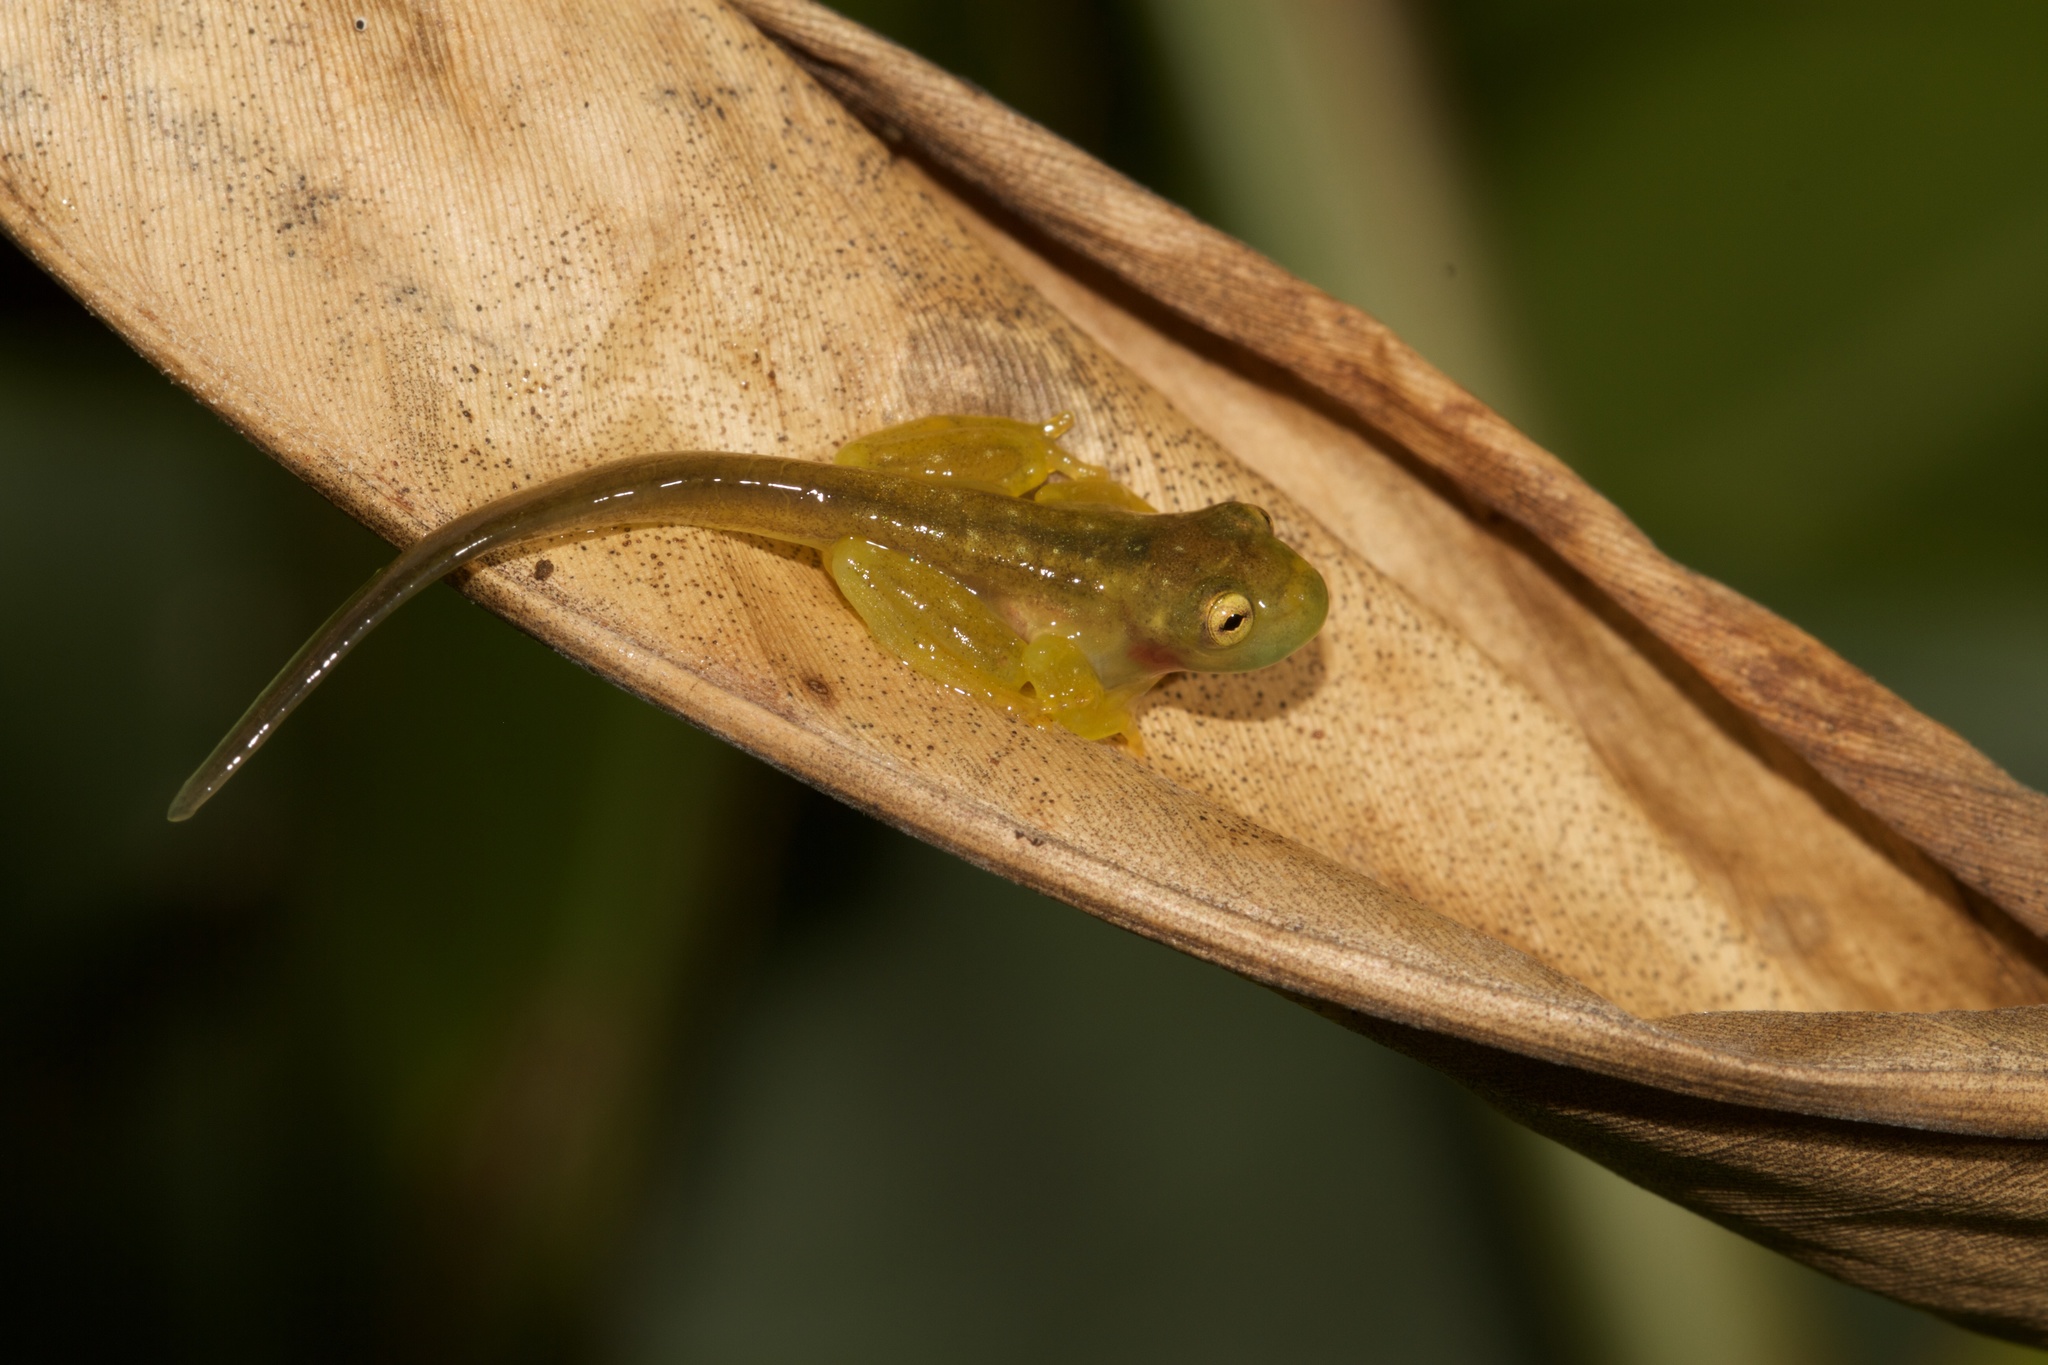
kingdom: Animalia
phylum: Chordata
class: Amphibia
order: Anura
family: Centrolenidae
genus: Hyalinobatrachium
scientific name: Hyalinobatrachium tatayoi
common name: Tatayo’s glass frog
